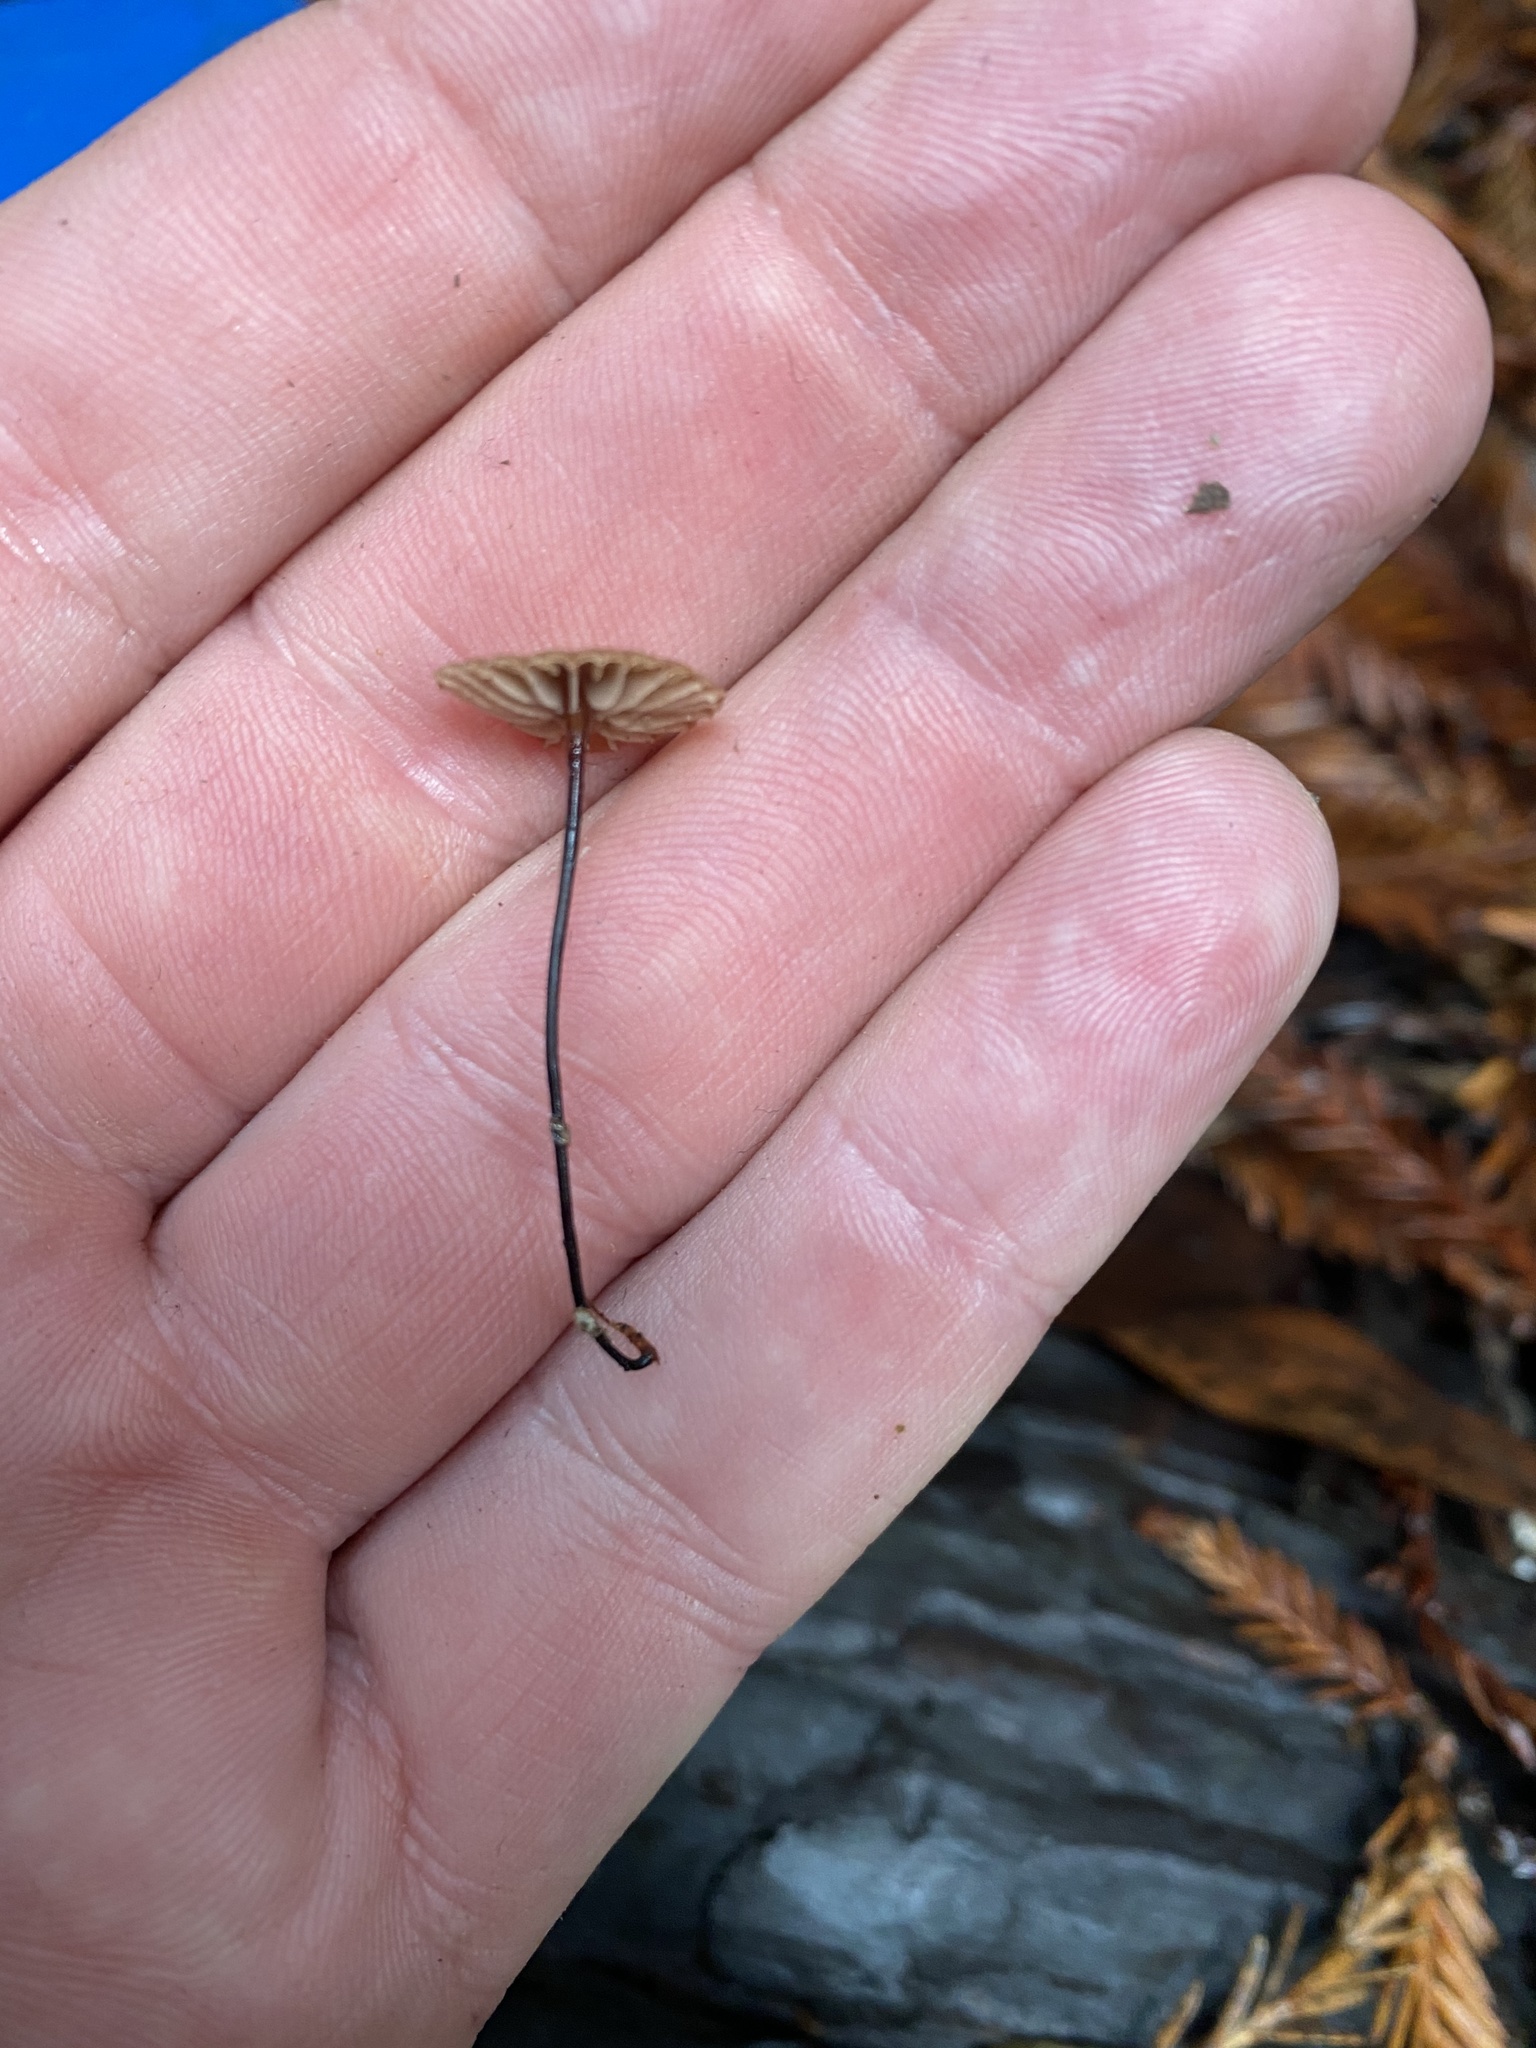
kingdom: Fungi
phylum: Basidiomycota
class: Agaricomycetes
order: Agaricales
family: Omphalotaceae
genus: Paragymnopus
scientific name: Paragymnopus sequoiae
